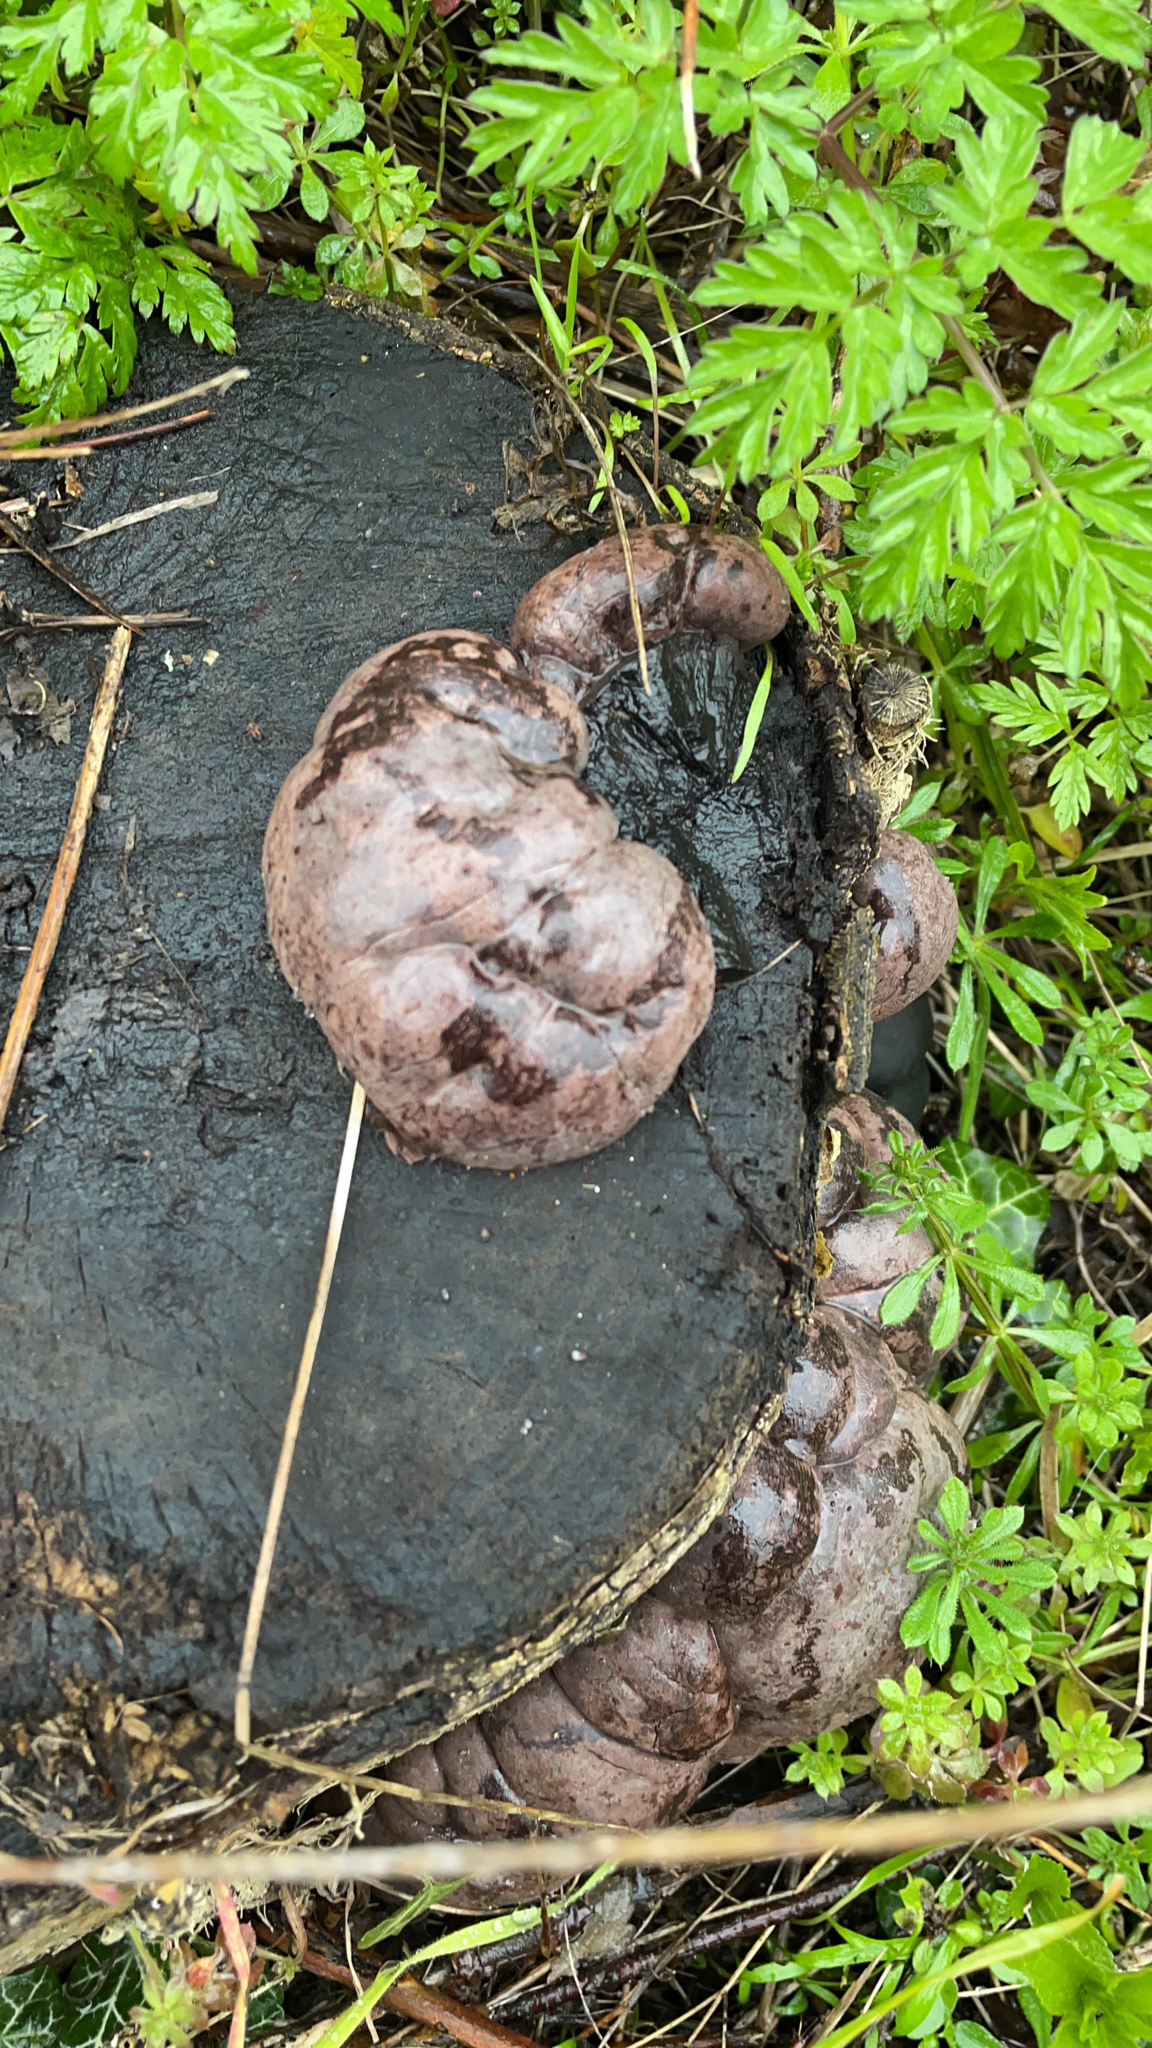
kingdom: Fungi
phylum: Ascomycota
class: Sordariomycetes
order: Xylariales
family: Hypoxylaceae
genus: Daldinia
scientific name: Daldinia concentrica
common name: Cramp balls
